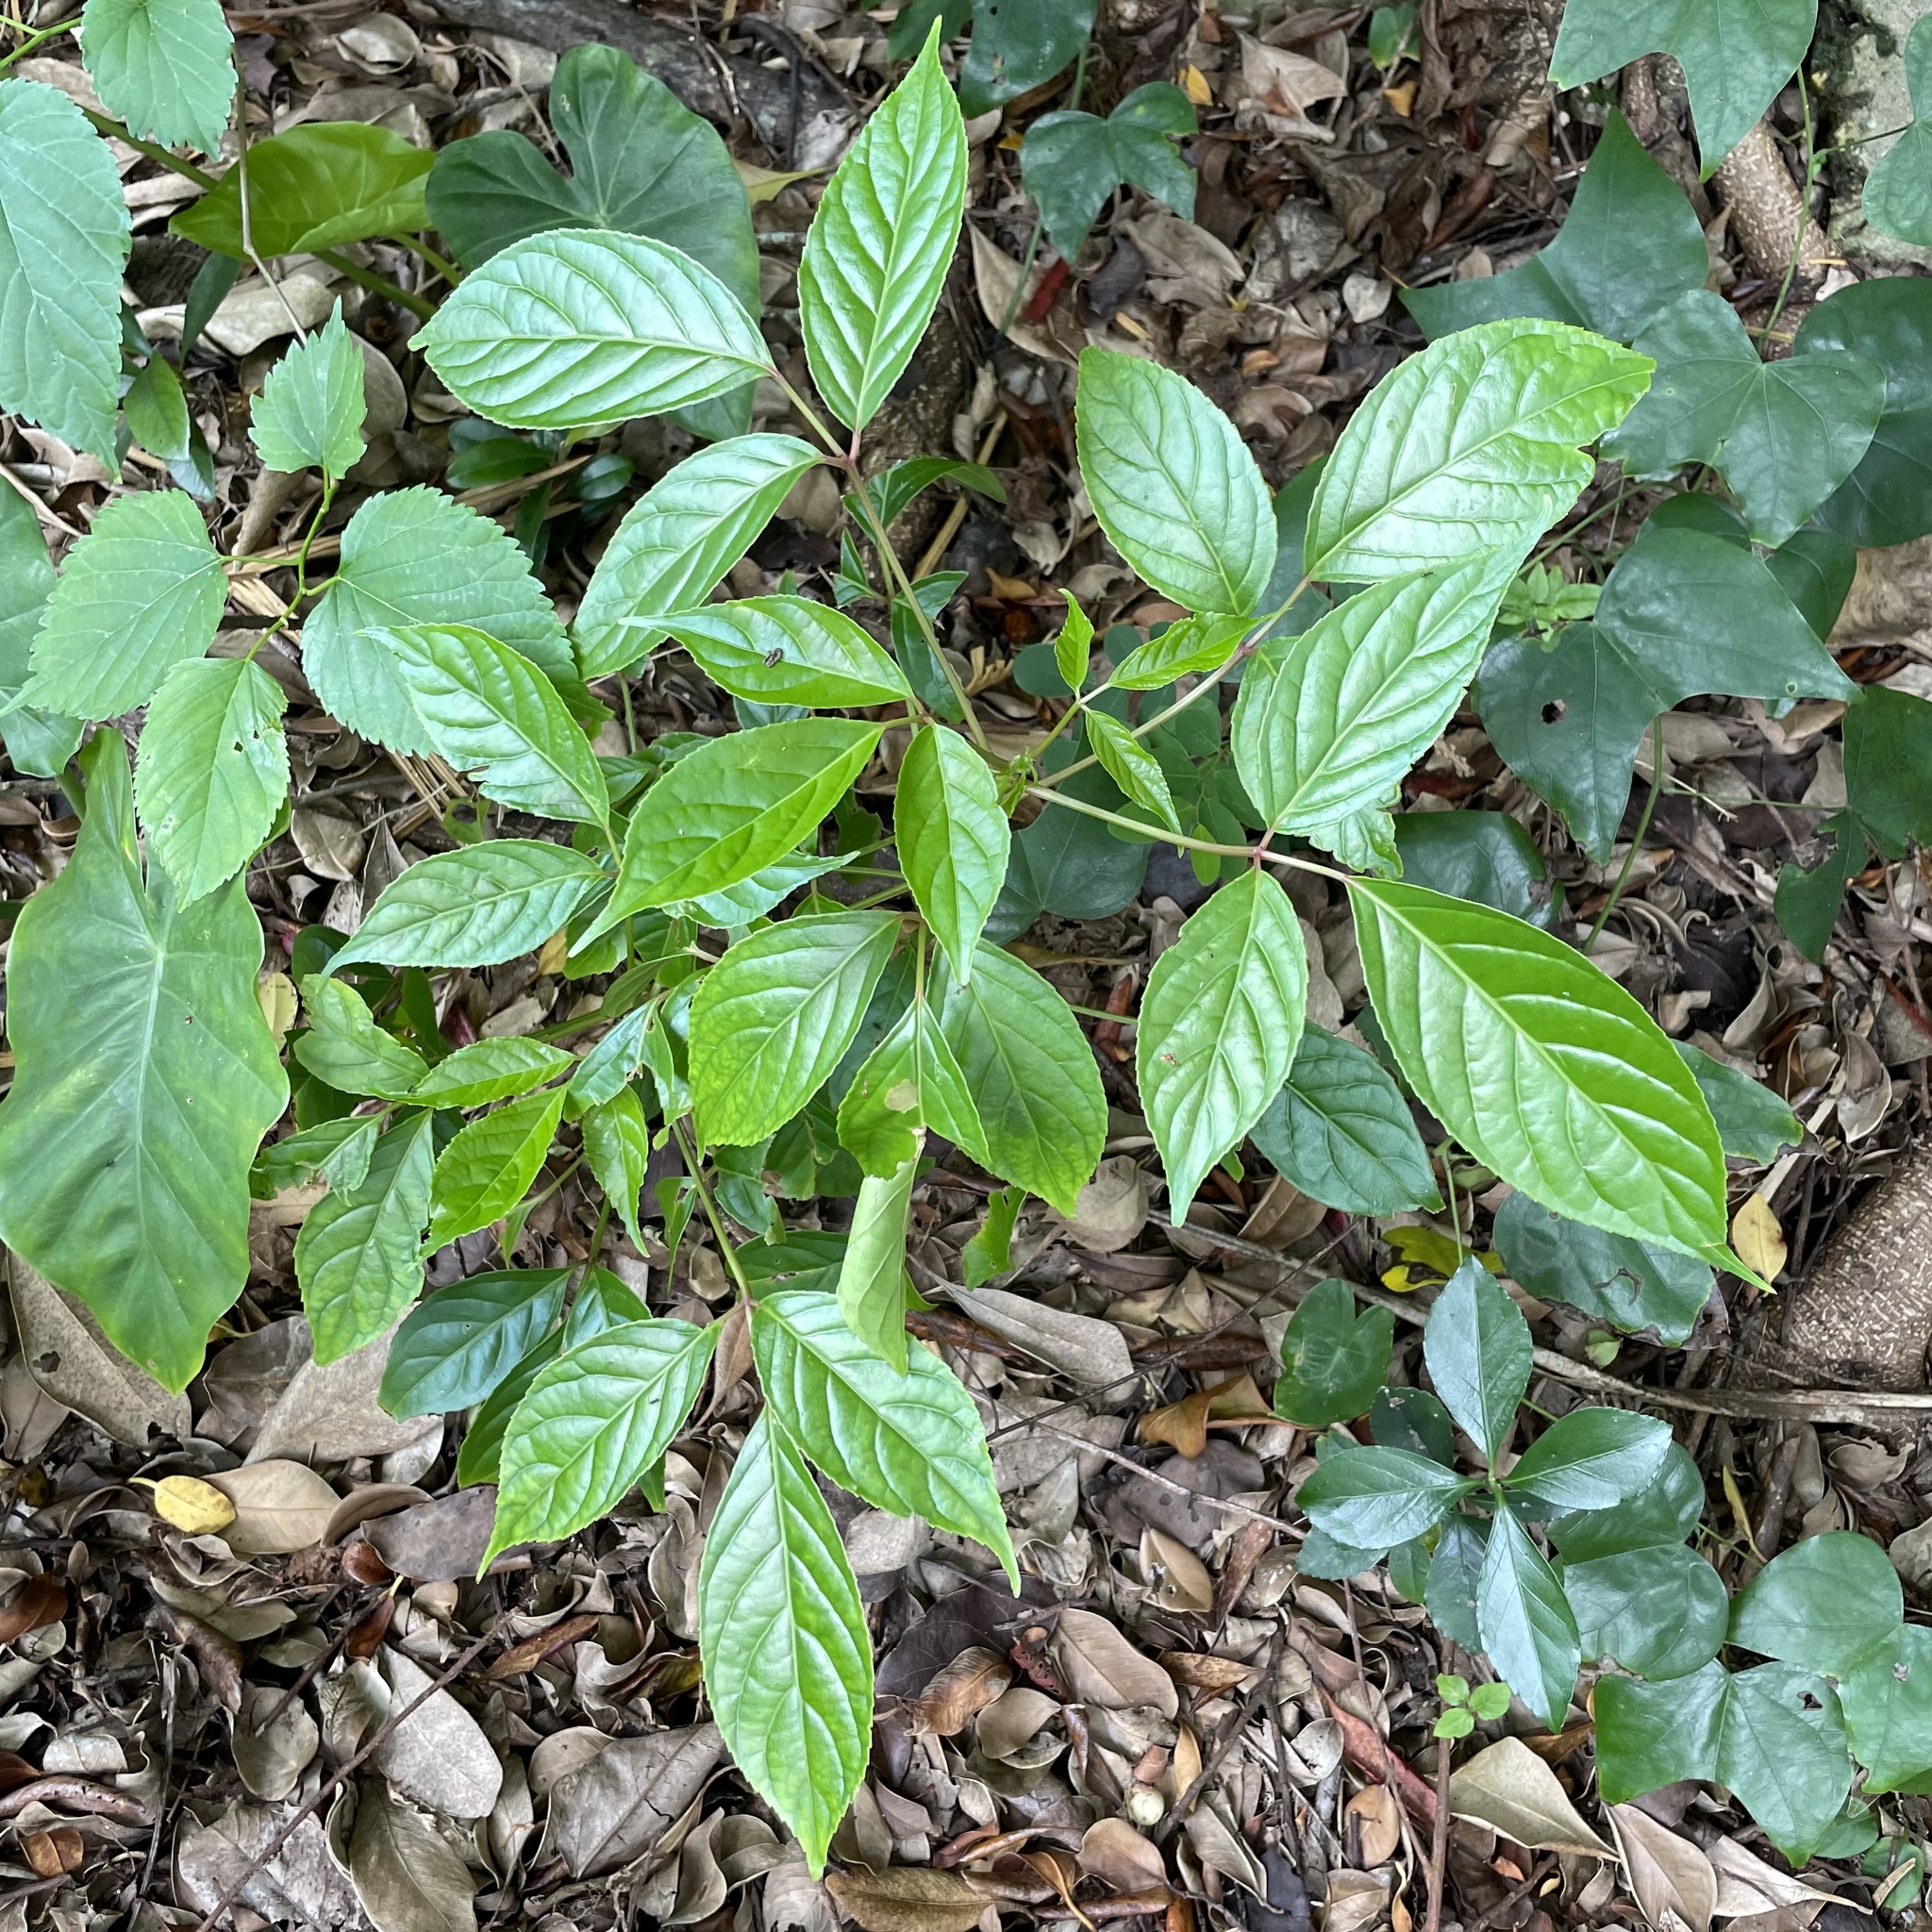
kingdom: Plantae
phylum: Tracheophyta
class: Magnoliopsida
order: Malpighiales
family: Phyllanthaceae
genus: Bischofia
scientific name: Bischofia javanica
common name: Javanese bishopwood
